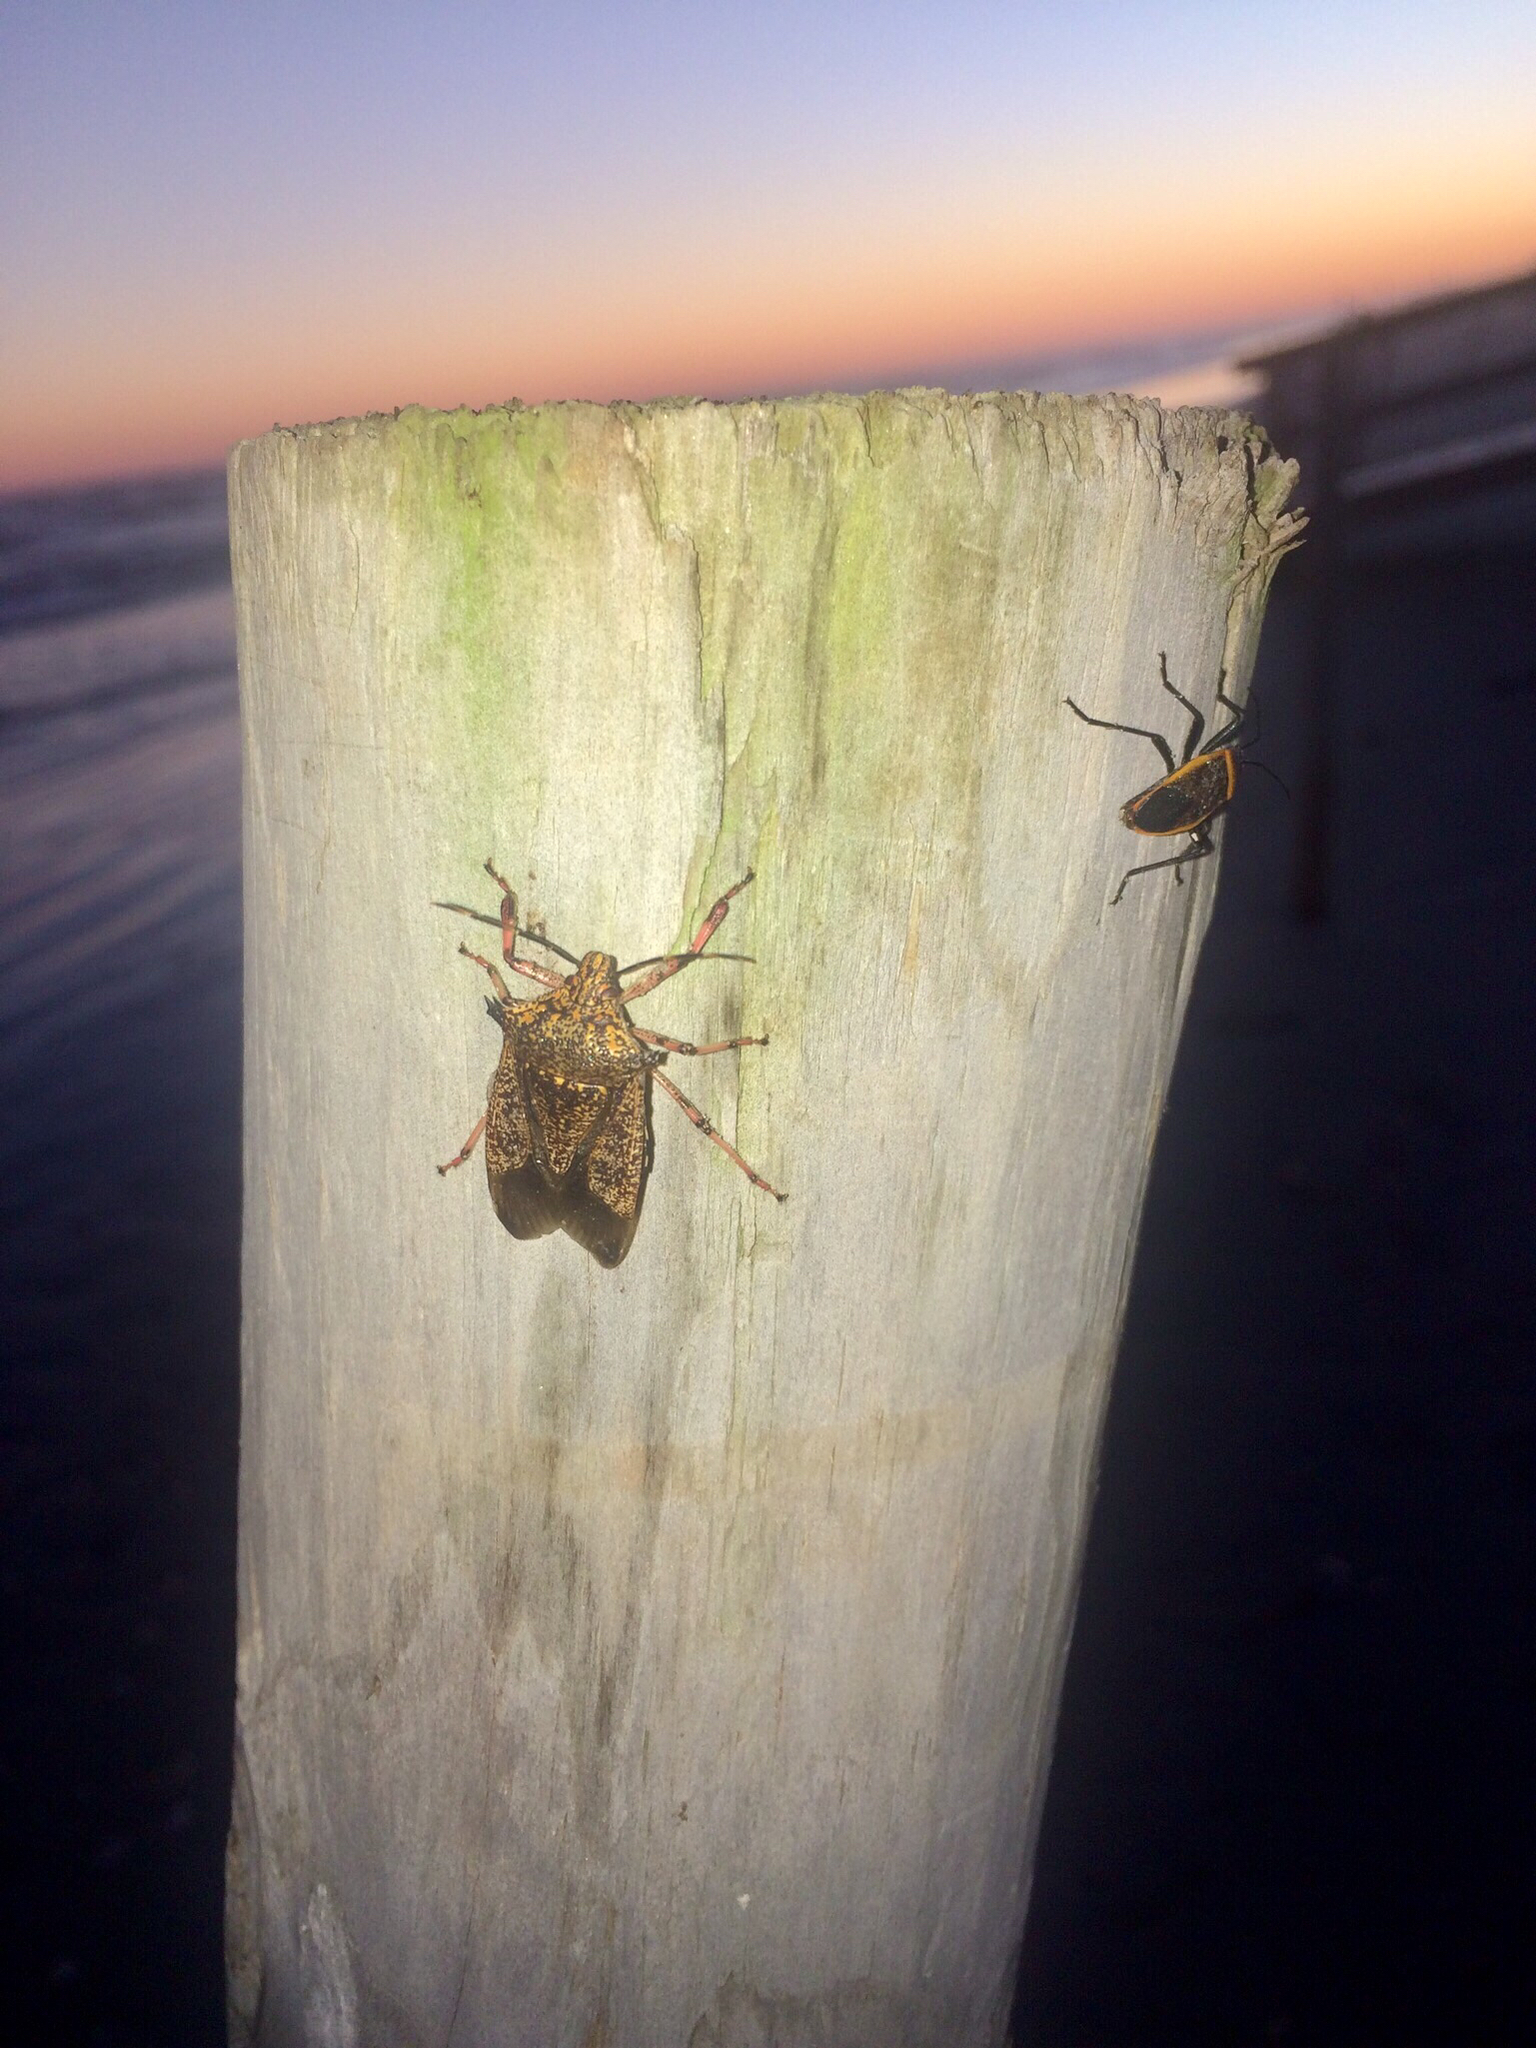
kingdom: Animalia
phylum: Arthropoda
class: Insecta
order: Hemiptera
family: Pentatomidae
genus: Alcaeorrhynchus
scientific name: Alcaeorrhynchus grandis
